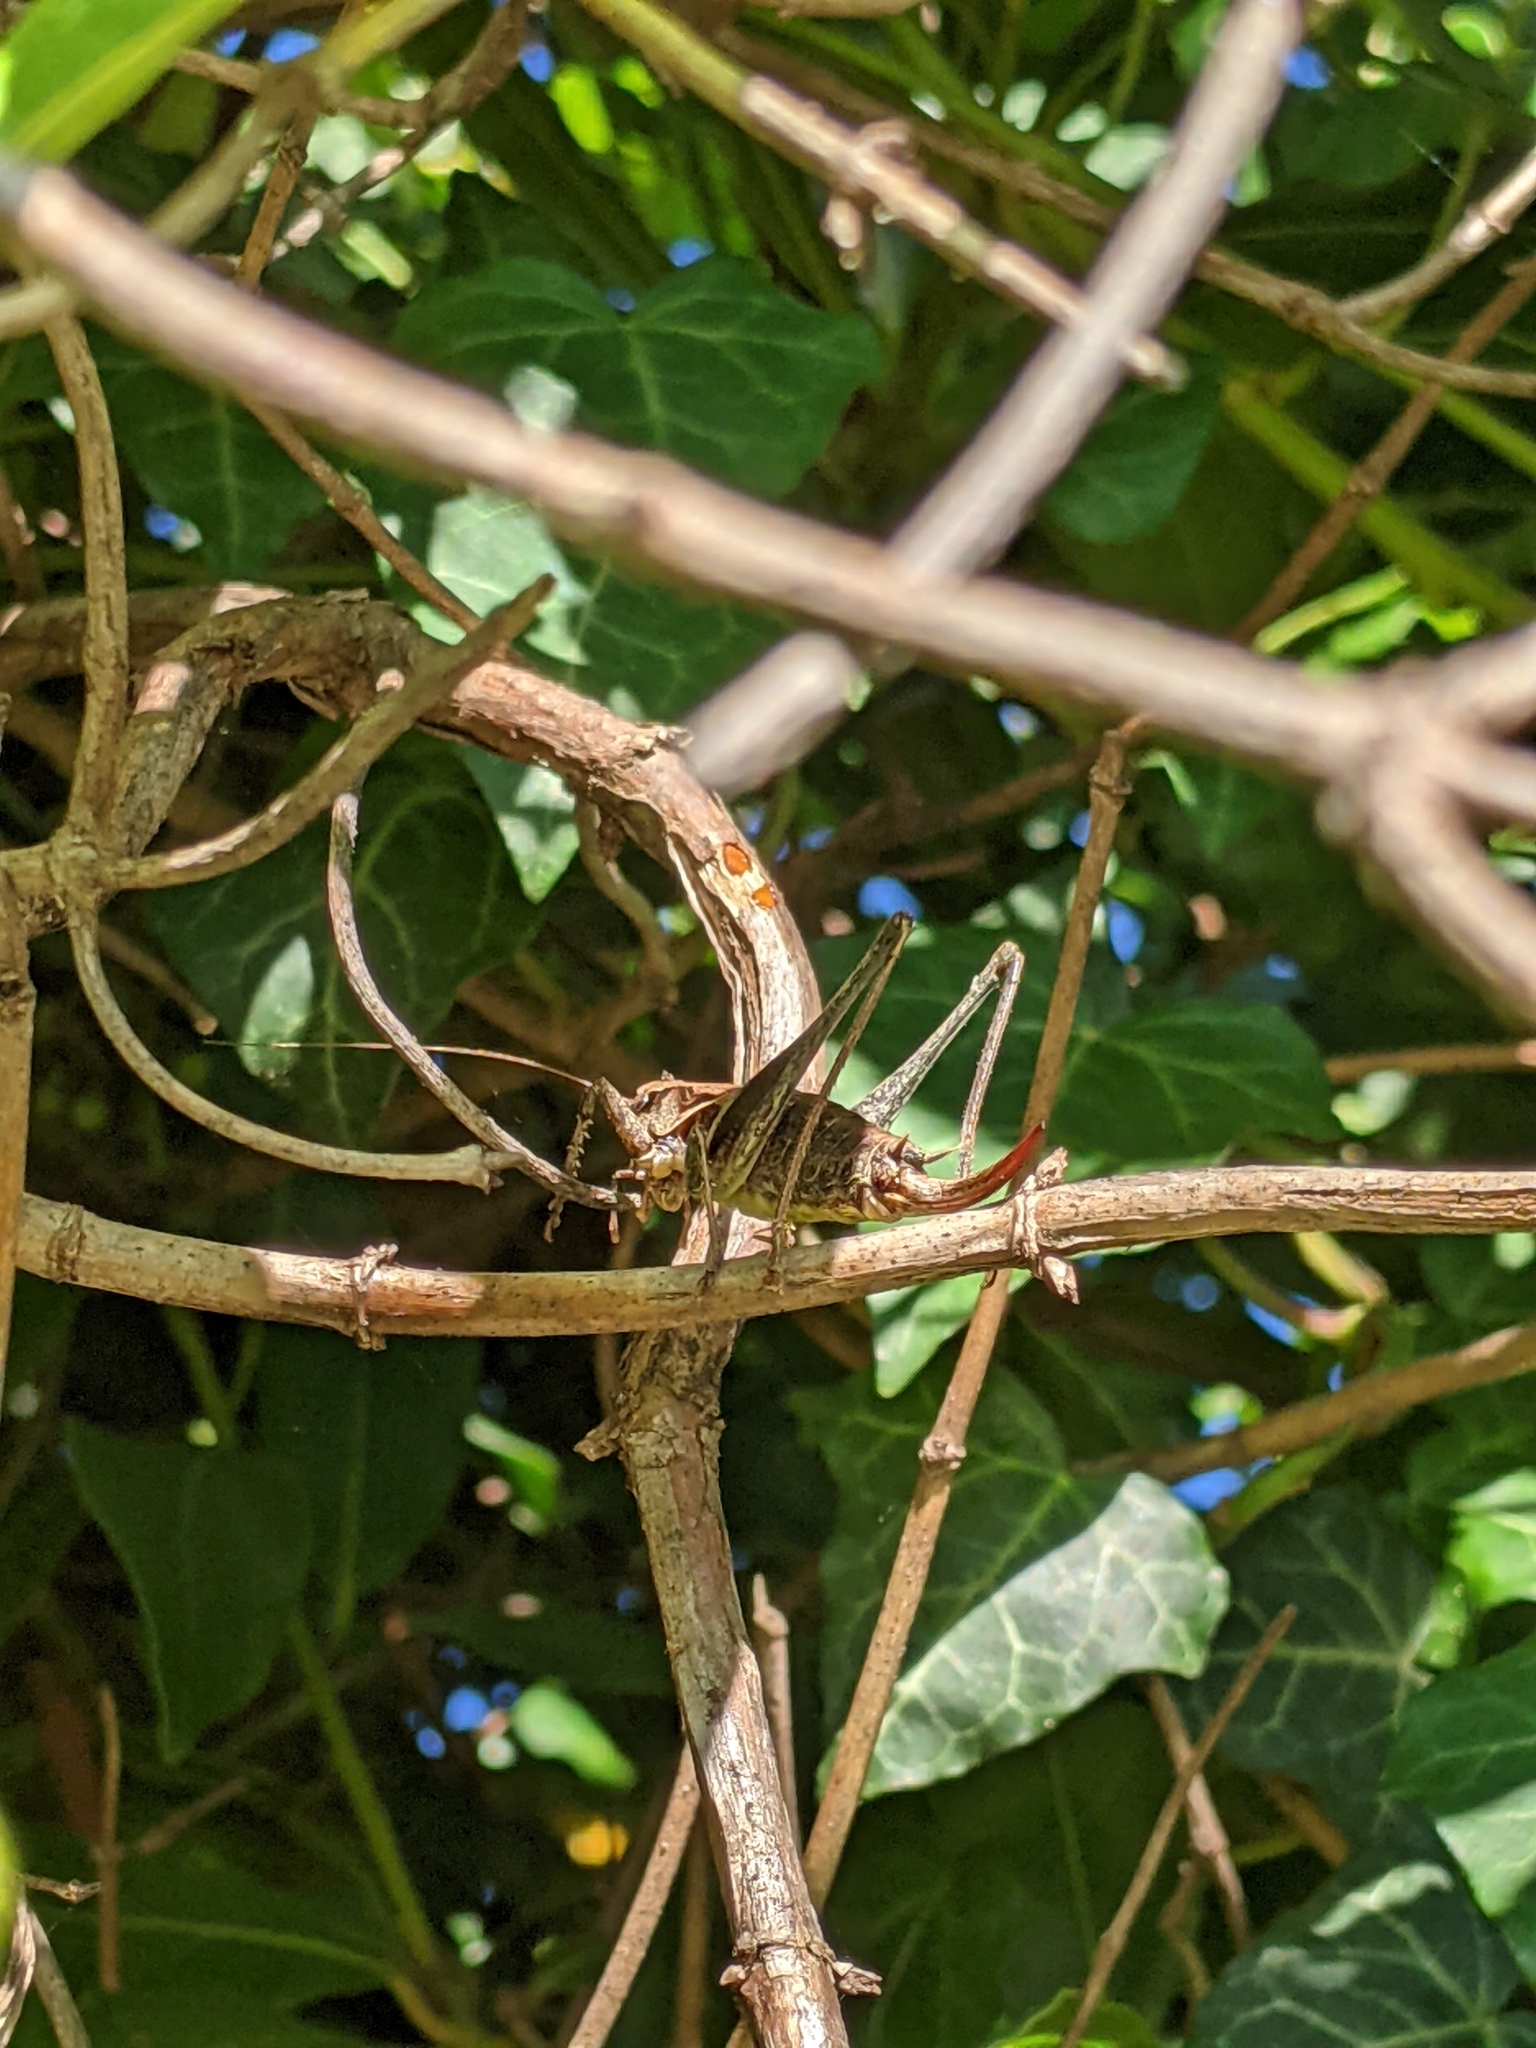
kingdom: Animalia
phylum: Arthropoda
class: Insecta
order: Orthoptera
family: Tettigoniidae
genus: Pholidoptera
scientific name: Pholidoptera griseoaptera
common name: Dark bush-cricket
